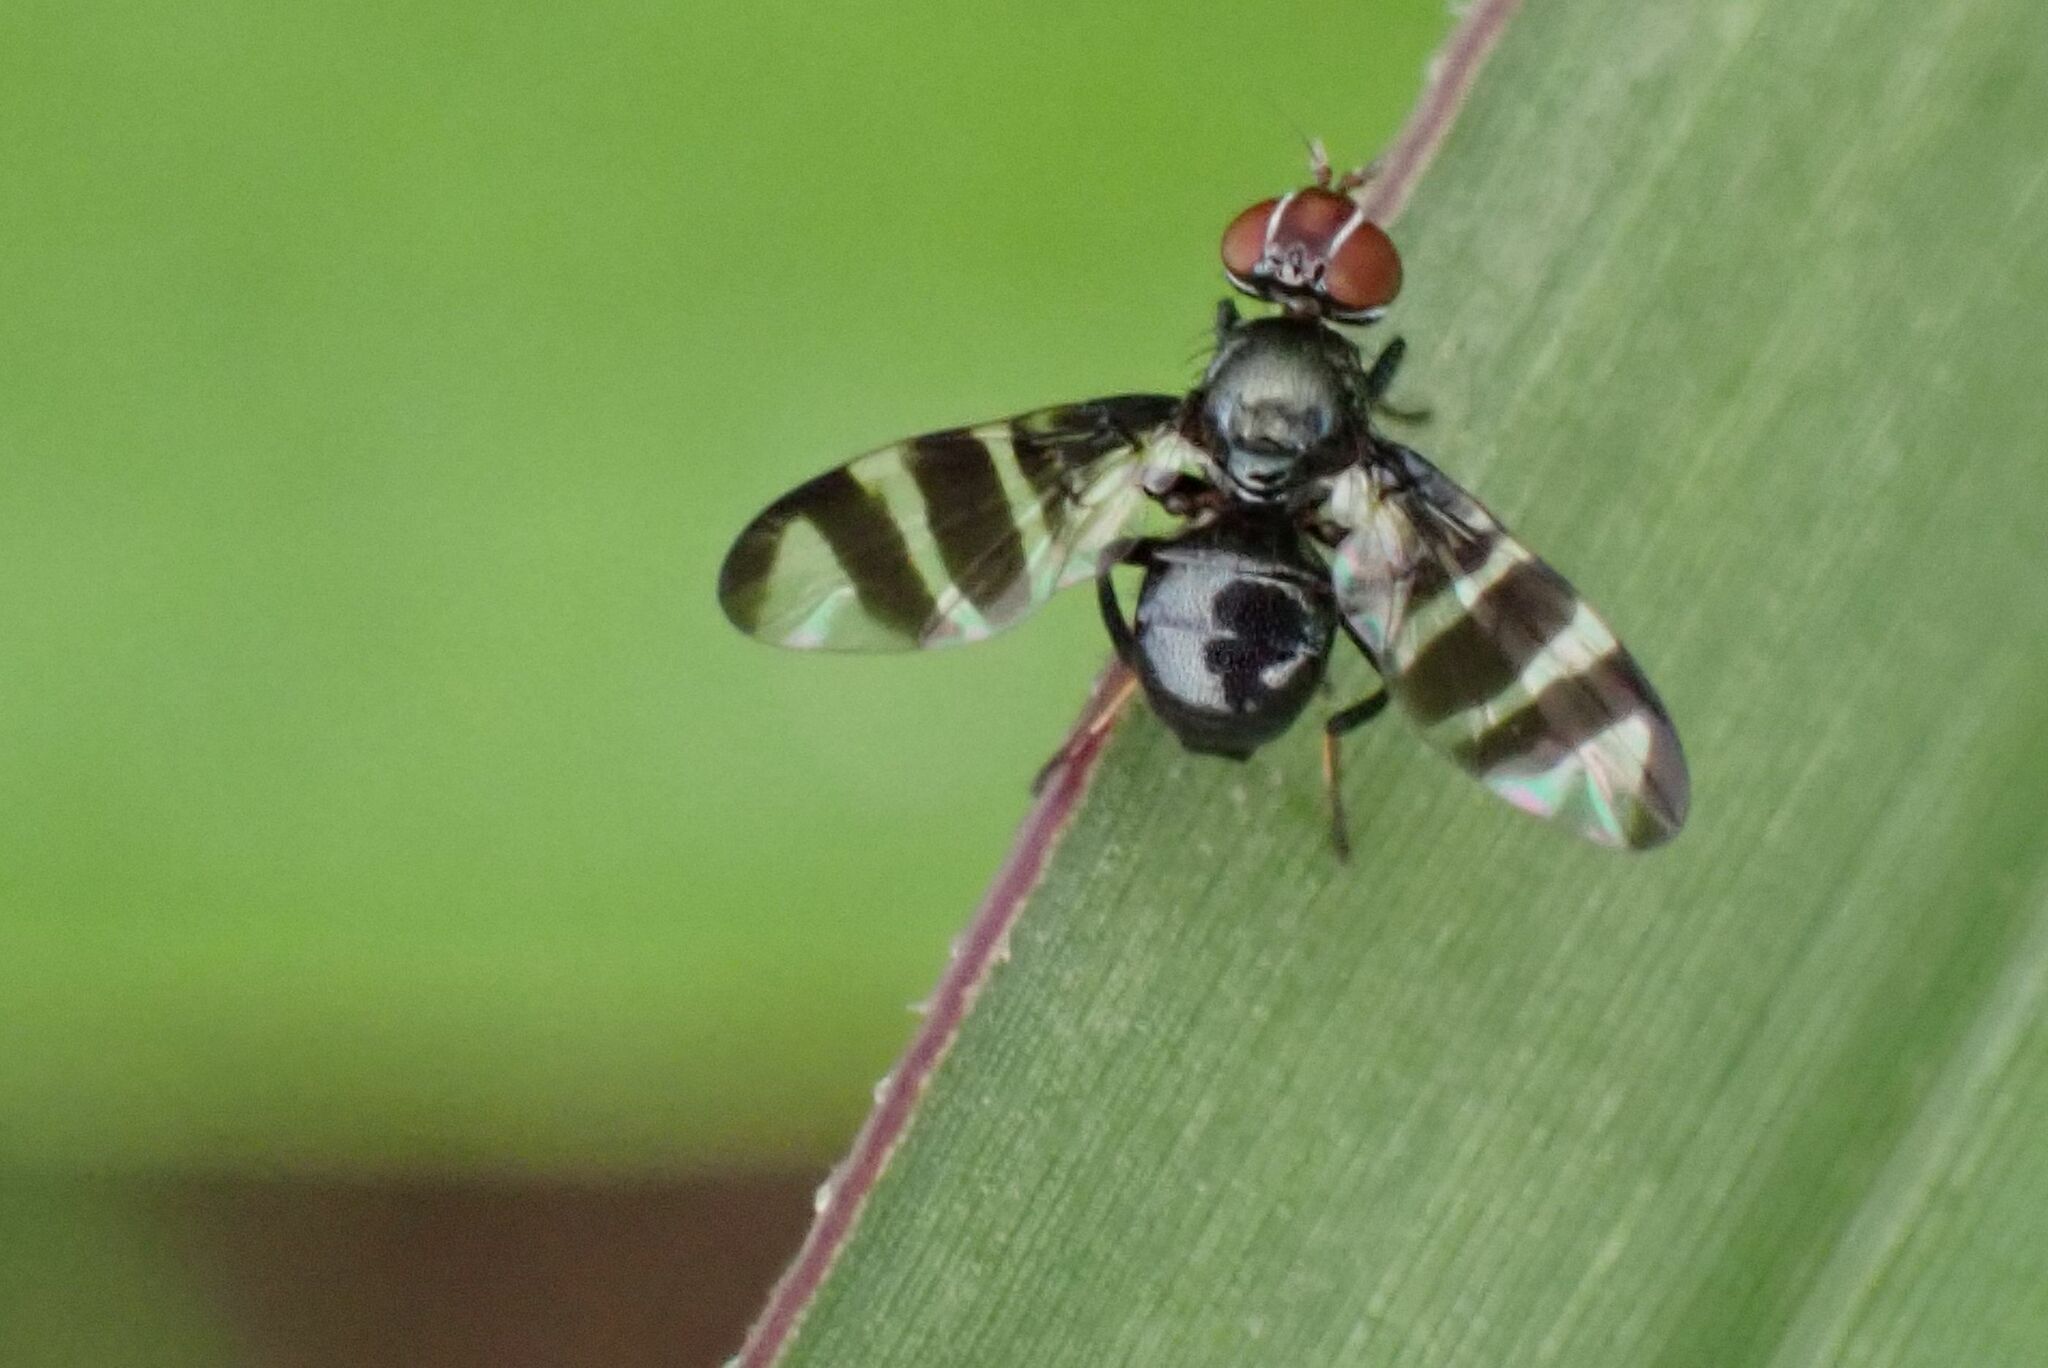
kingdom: Animalia
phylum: Arthropoda
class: Insecta
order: Diptera
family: Platystomatidae
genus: Rivellia
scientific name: Rivellia latifascia
